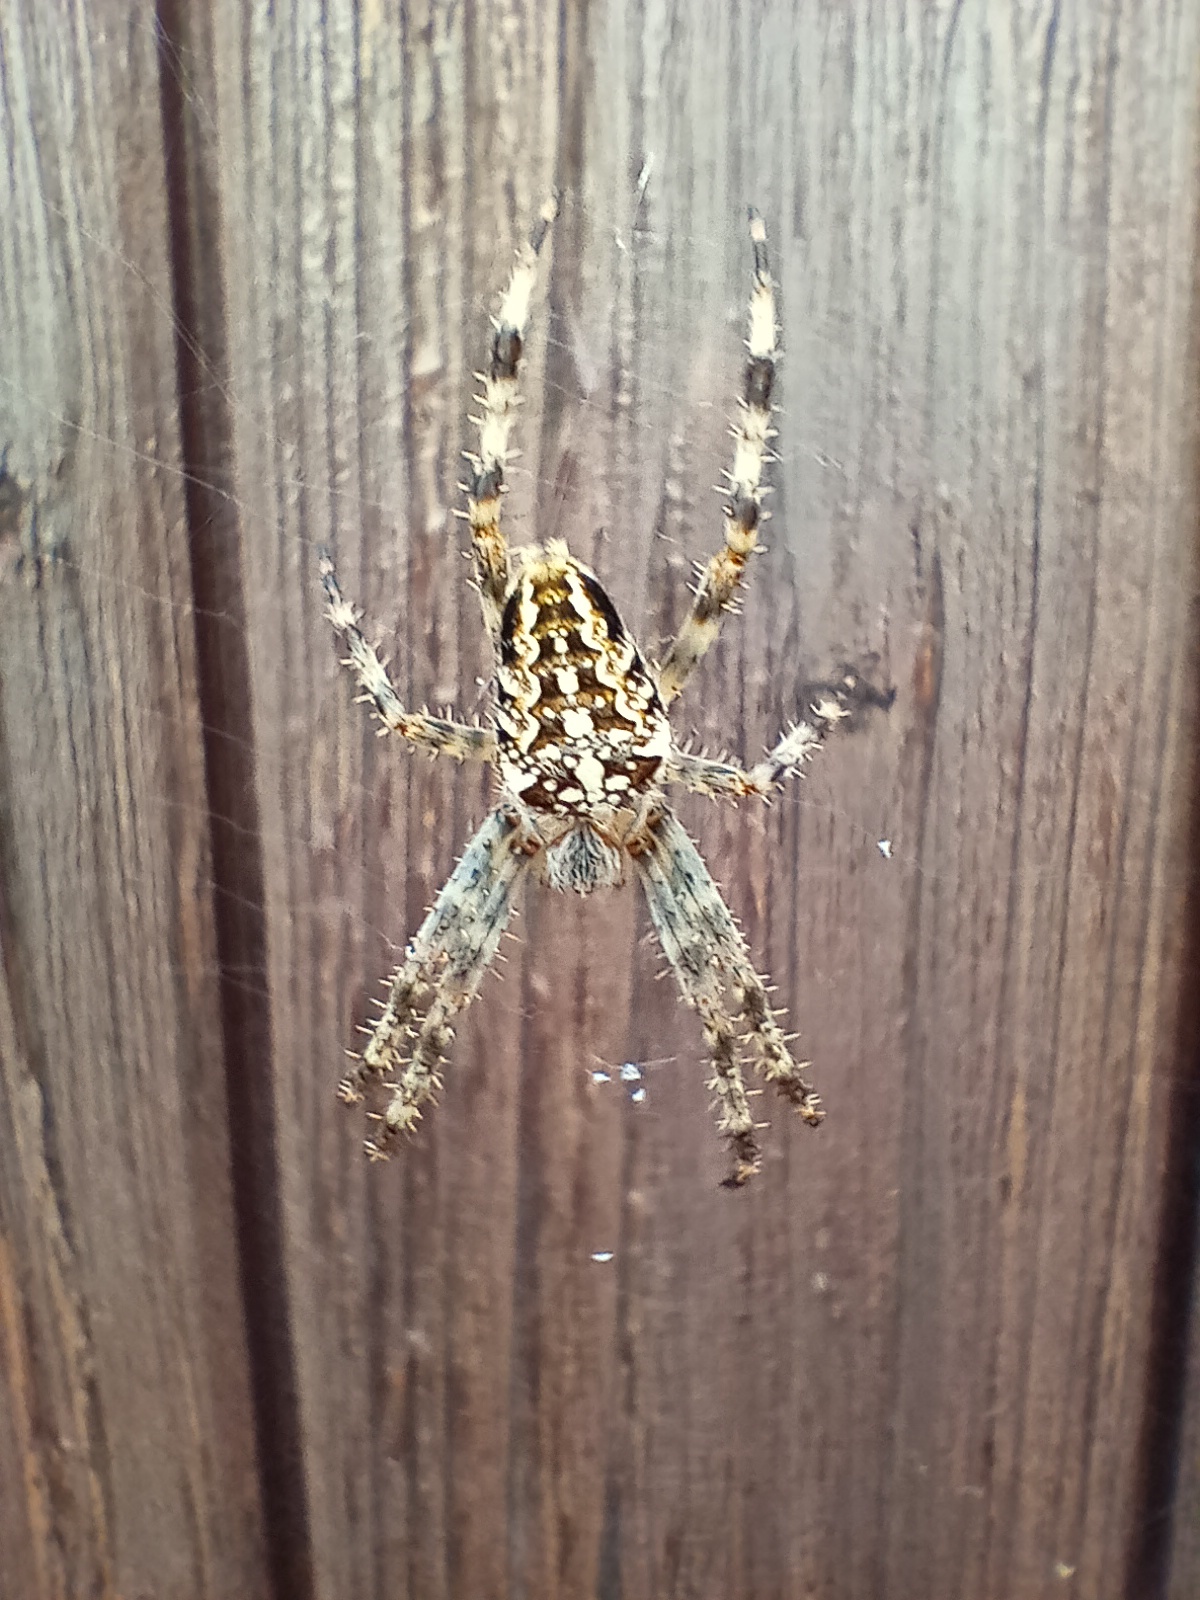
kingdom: Animalia
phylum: Arthropoda
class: Arachnida
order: Araneae
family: Araneidae
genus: Araneus
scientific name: Araneus diadematus
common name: Cross orbweaver
